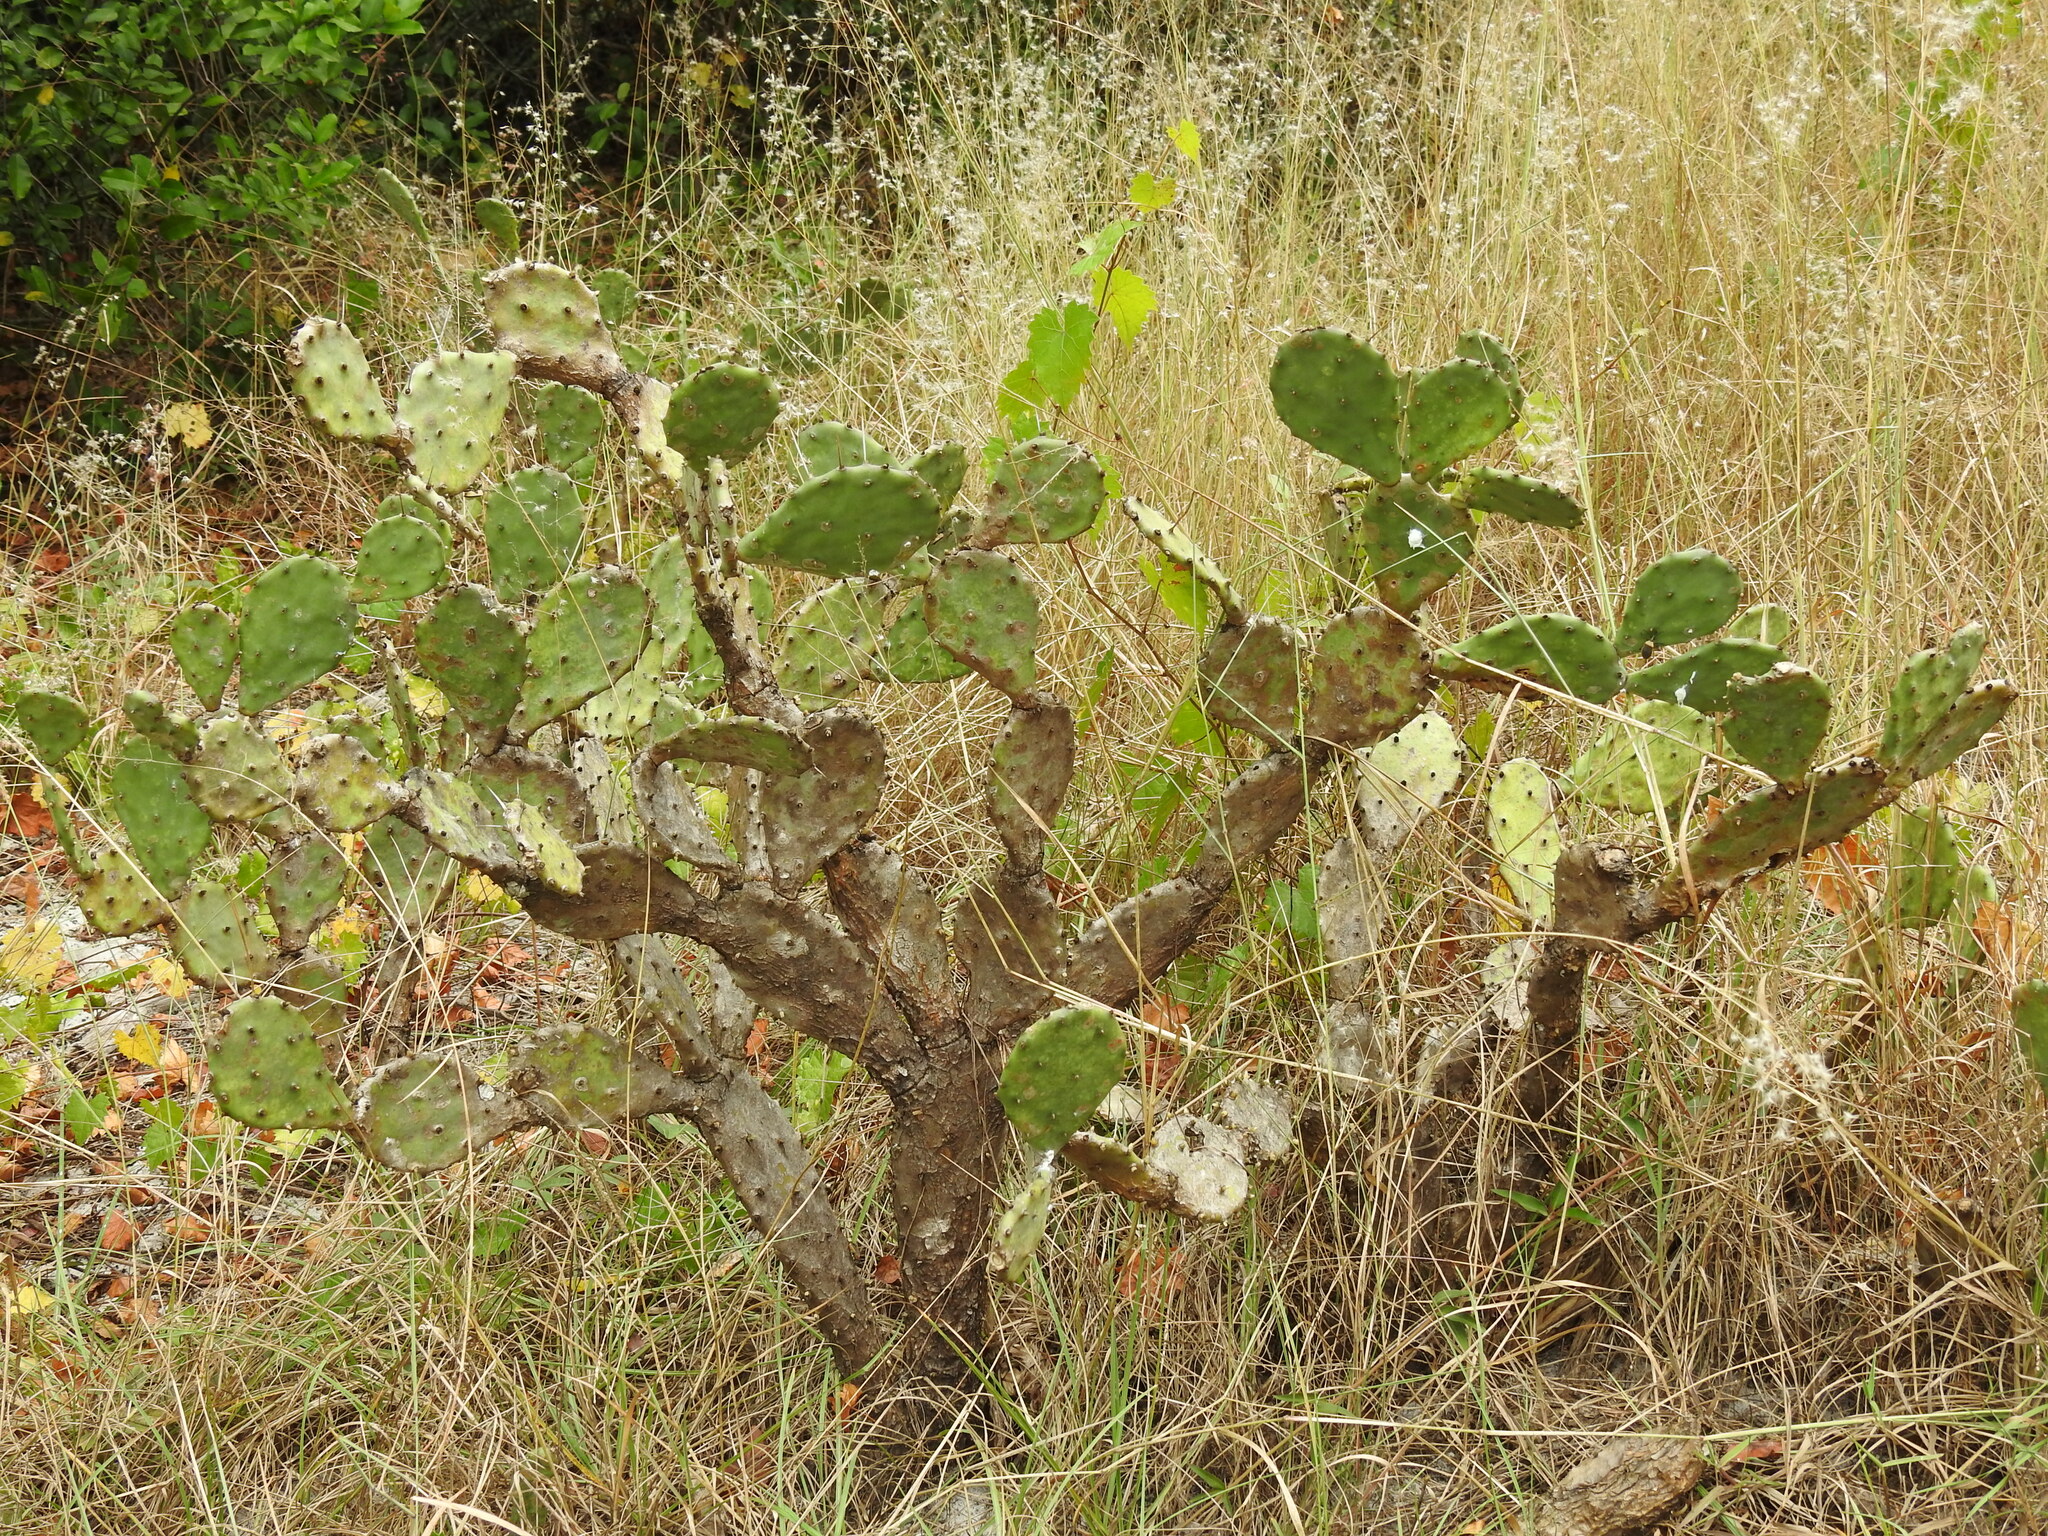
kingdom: Plantae
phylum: Tracheophyta
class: Magnoliopsida
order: Caryophyllales
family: Cactaceae
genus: Opuntia
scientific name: Opuntia austrina
